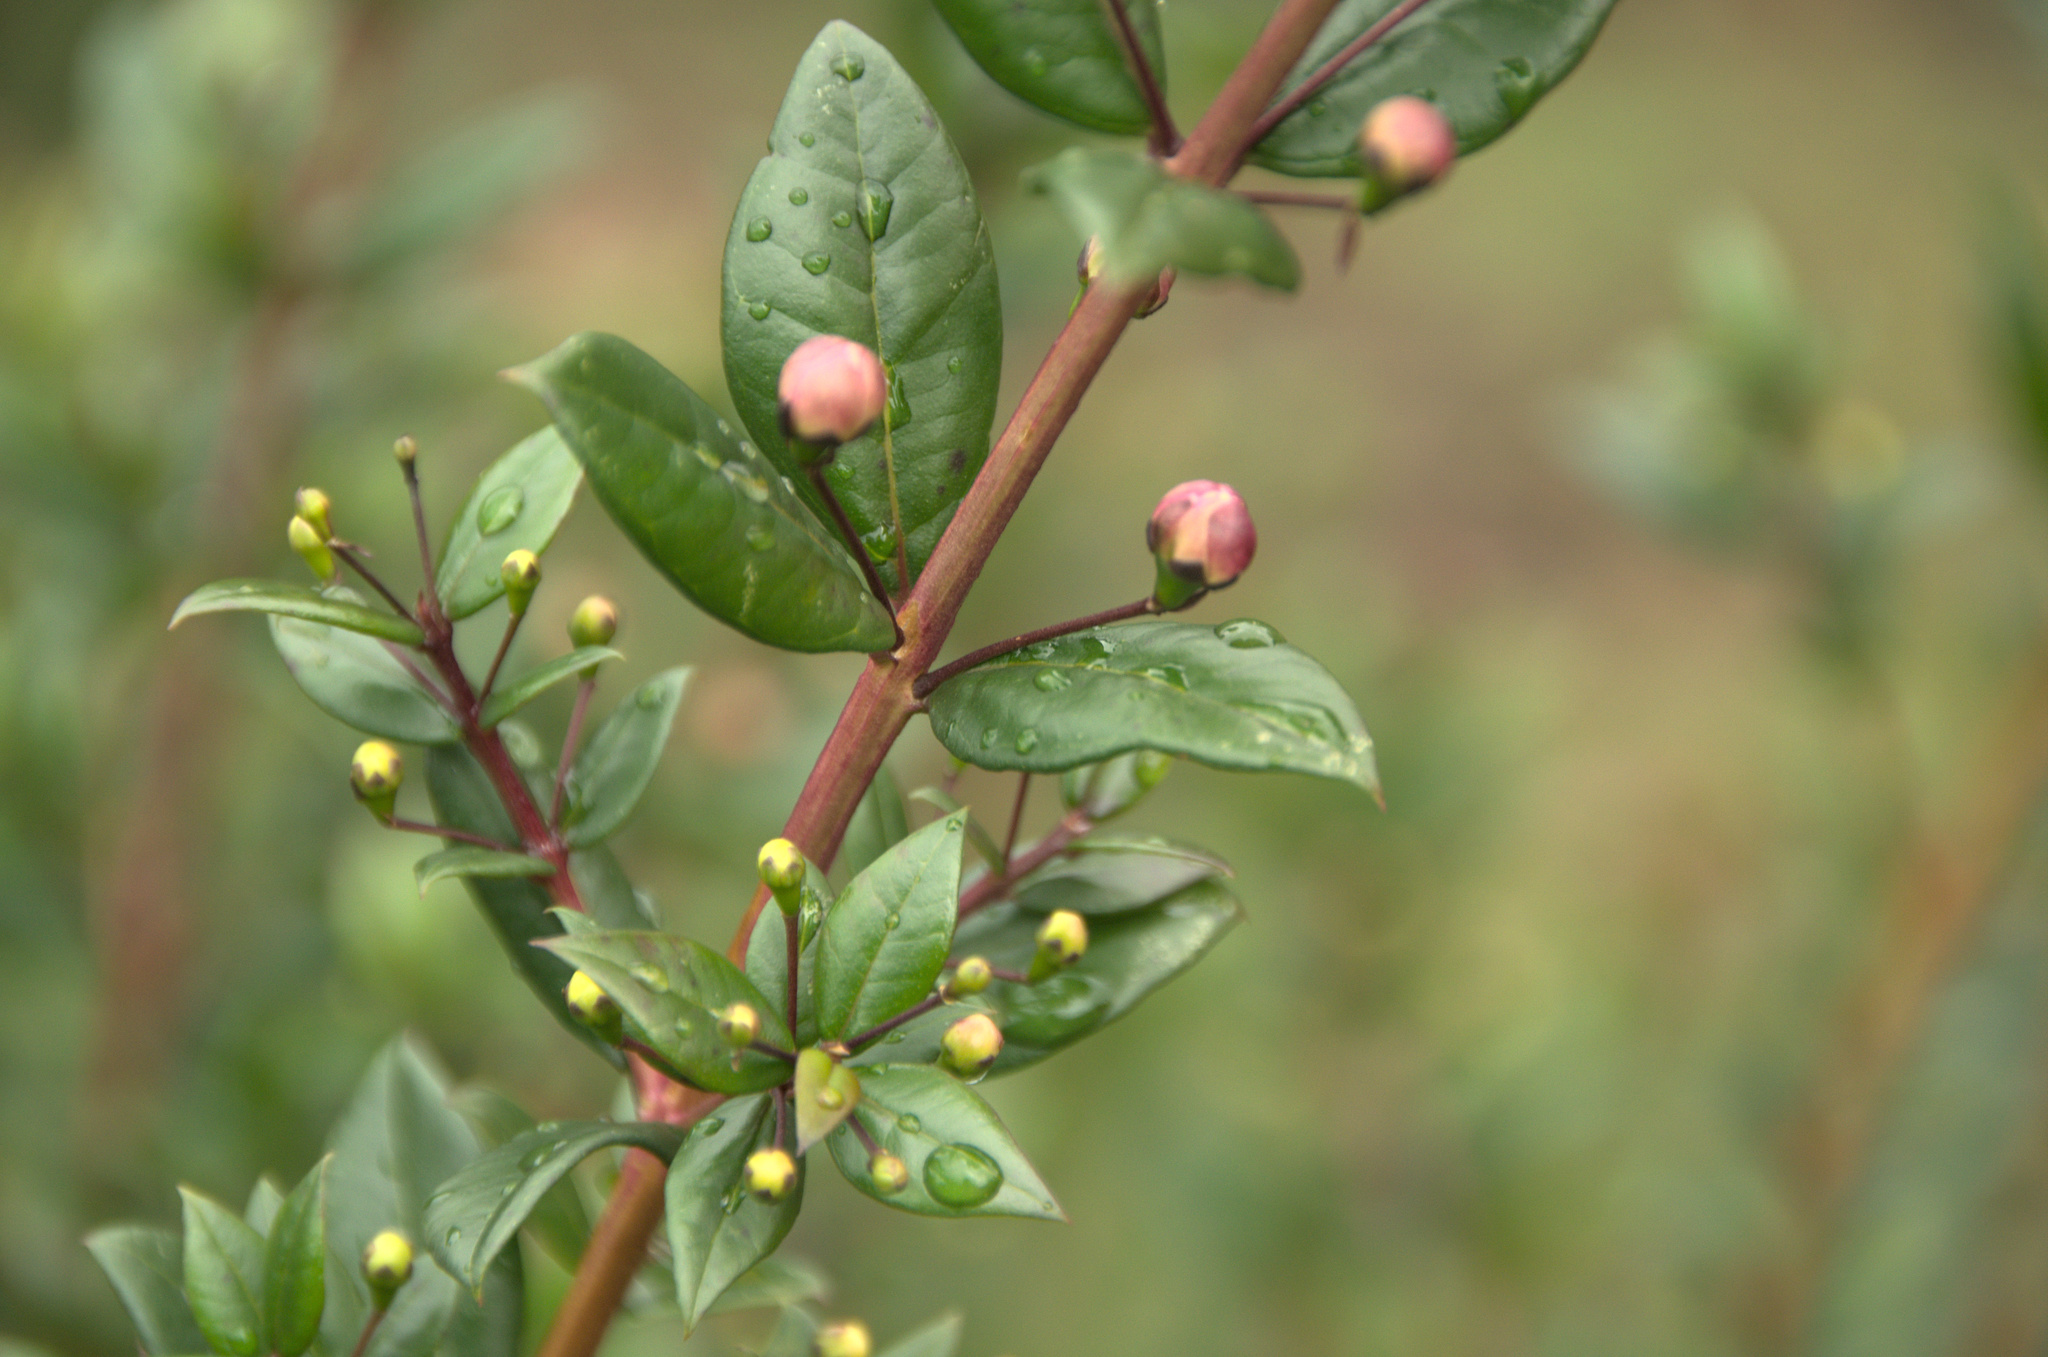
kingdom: Plantae
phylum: Tracheophyta
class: Magnoliopsida
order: Myrtales
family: Myrtaceae
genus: Myrtus
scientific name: Myrtus communis
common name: Myrtle
